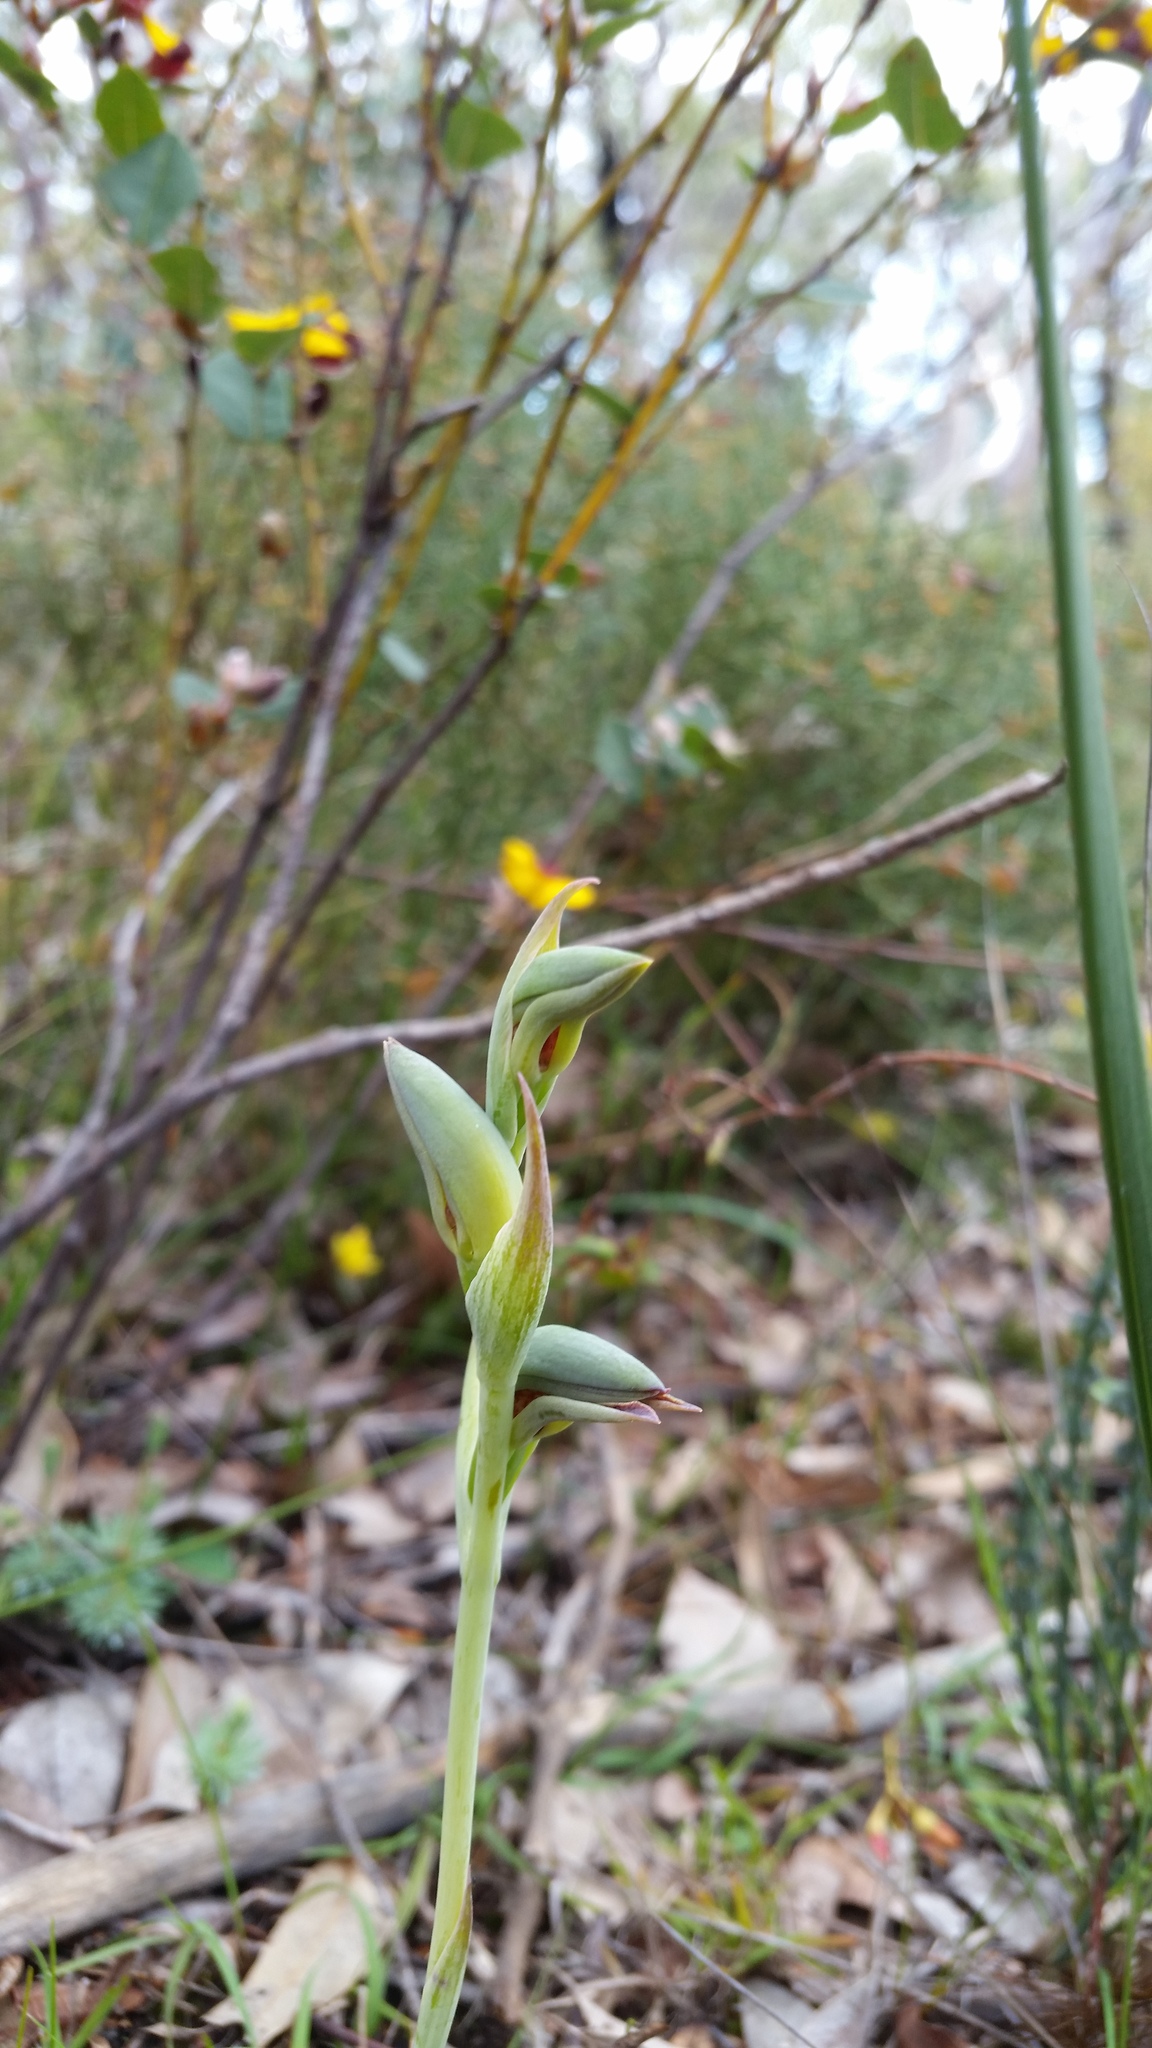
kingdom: Plantae
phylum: Tracheophyta
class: Liliopsida
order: Asparagales
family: Orchidaceae
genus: Lyperanthus
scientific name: Lyperanthus serratus
